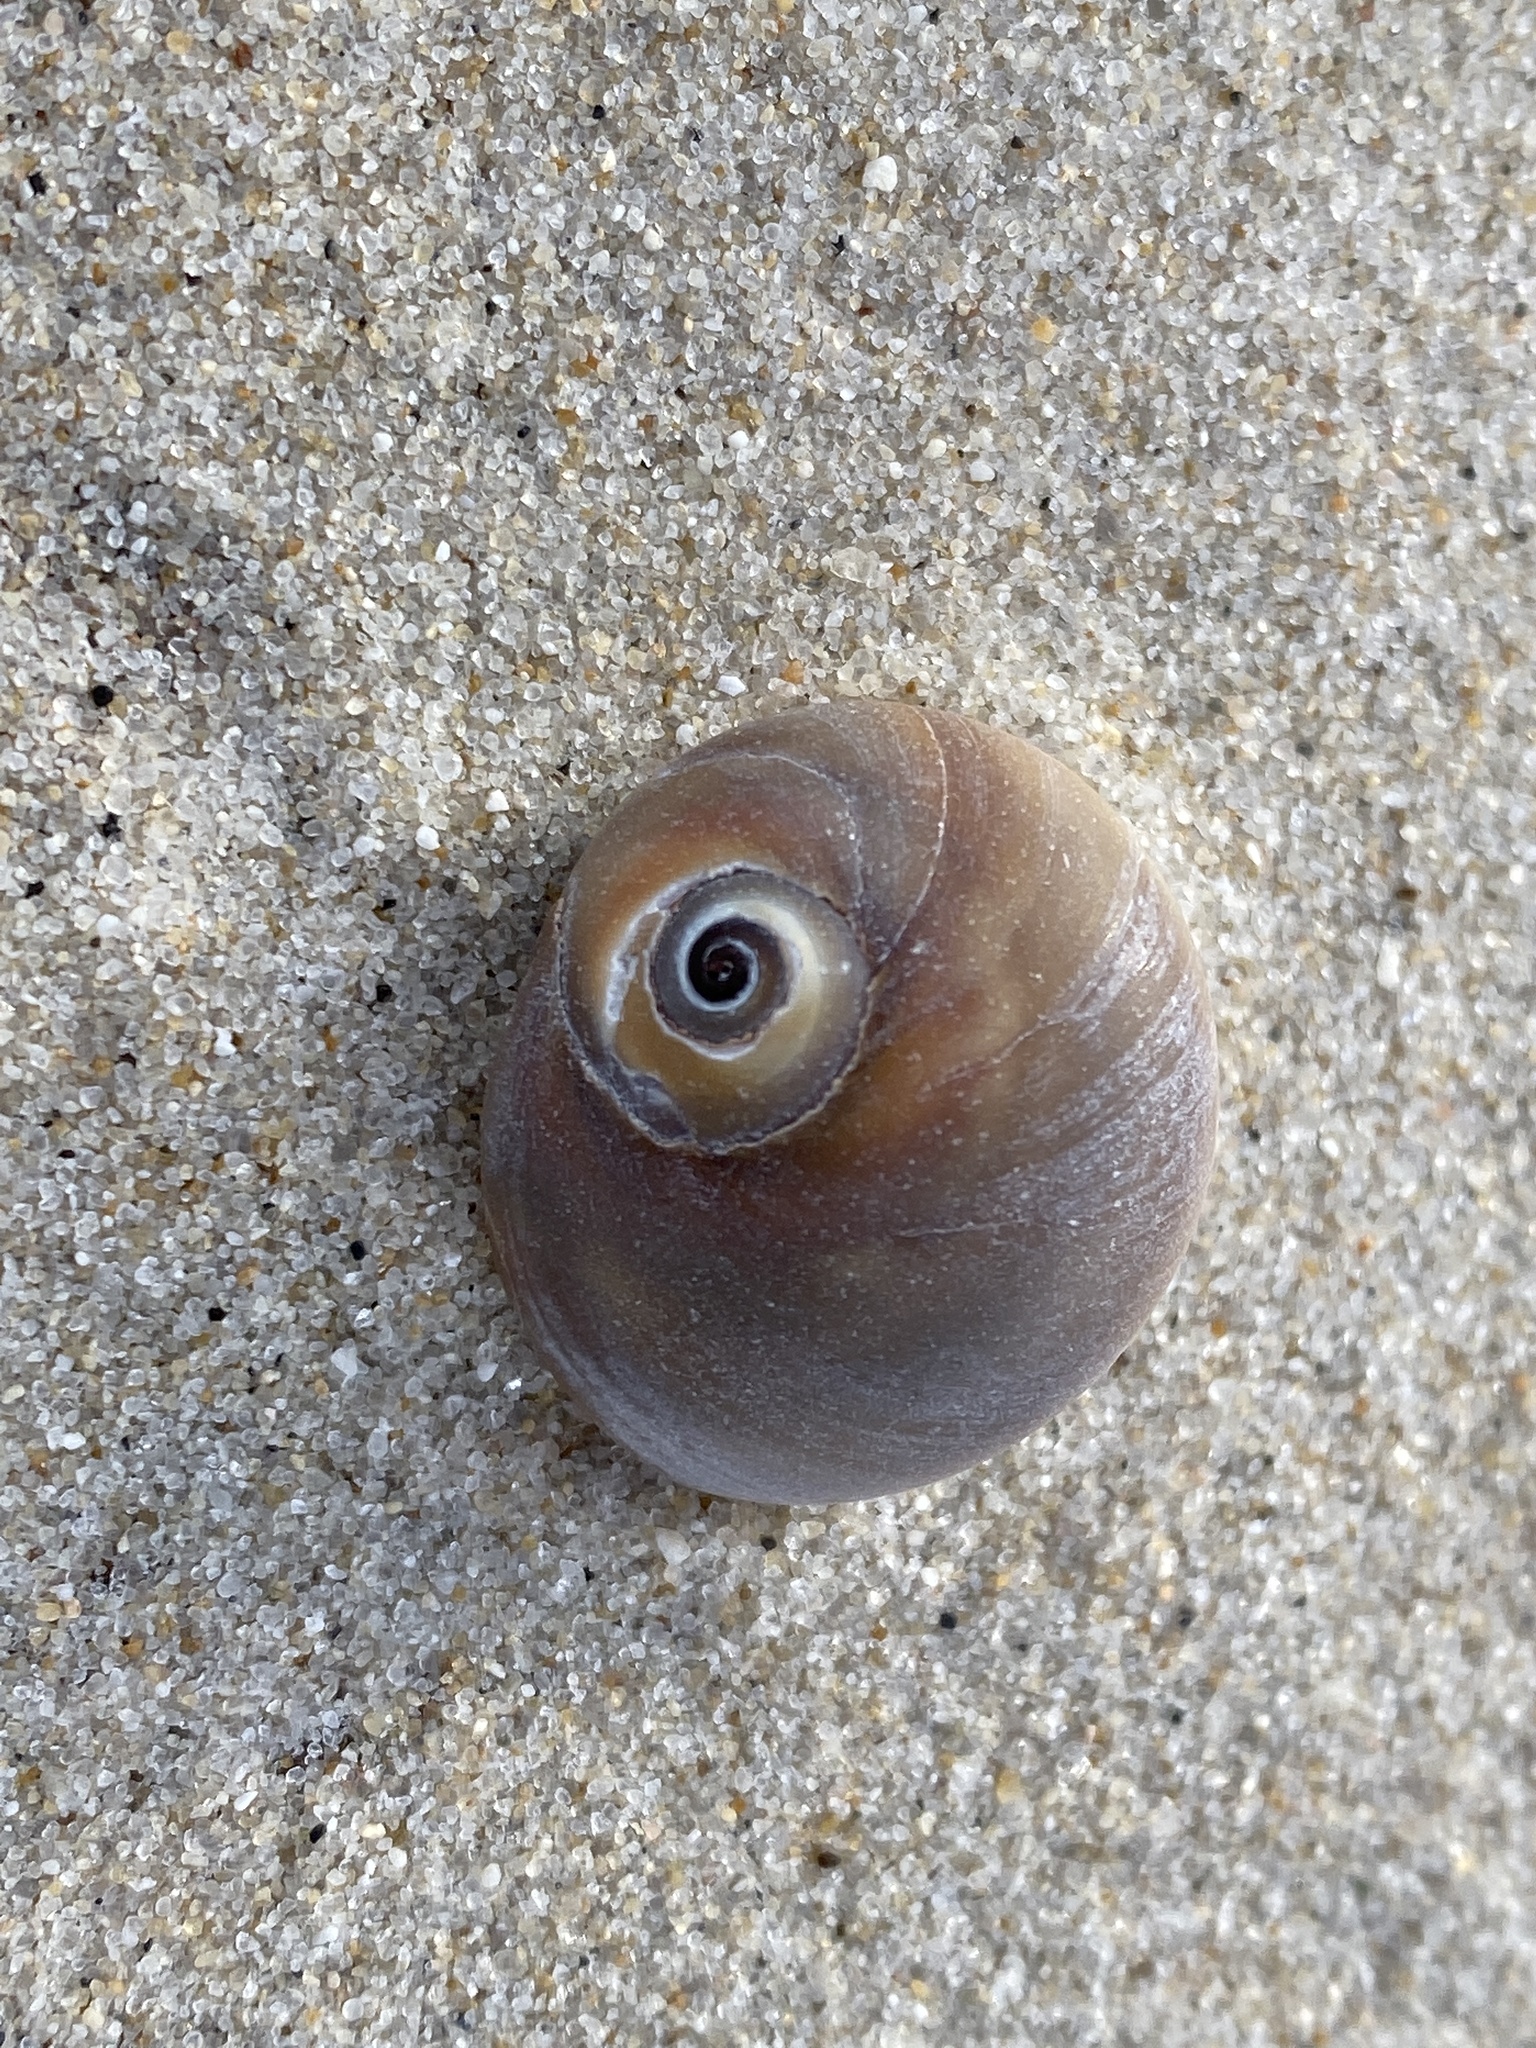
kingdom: Animalia
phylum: Mollusca
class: Gastropoda
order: Littorinimorpha
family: Naticidae
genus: Neverita
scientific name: Neverita duplicata
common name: Lobed moonsnail
